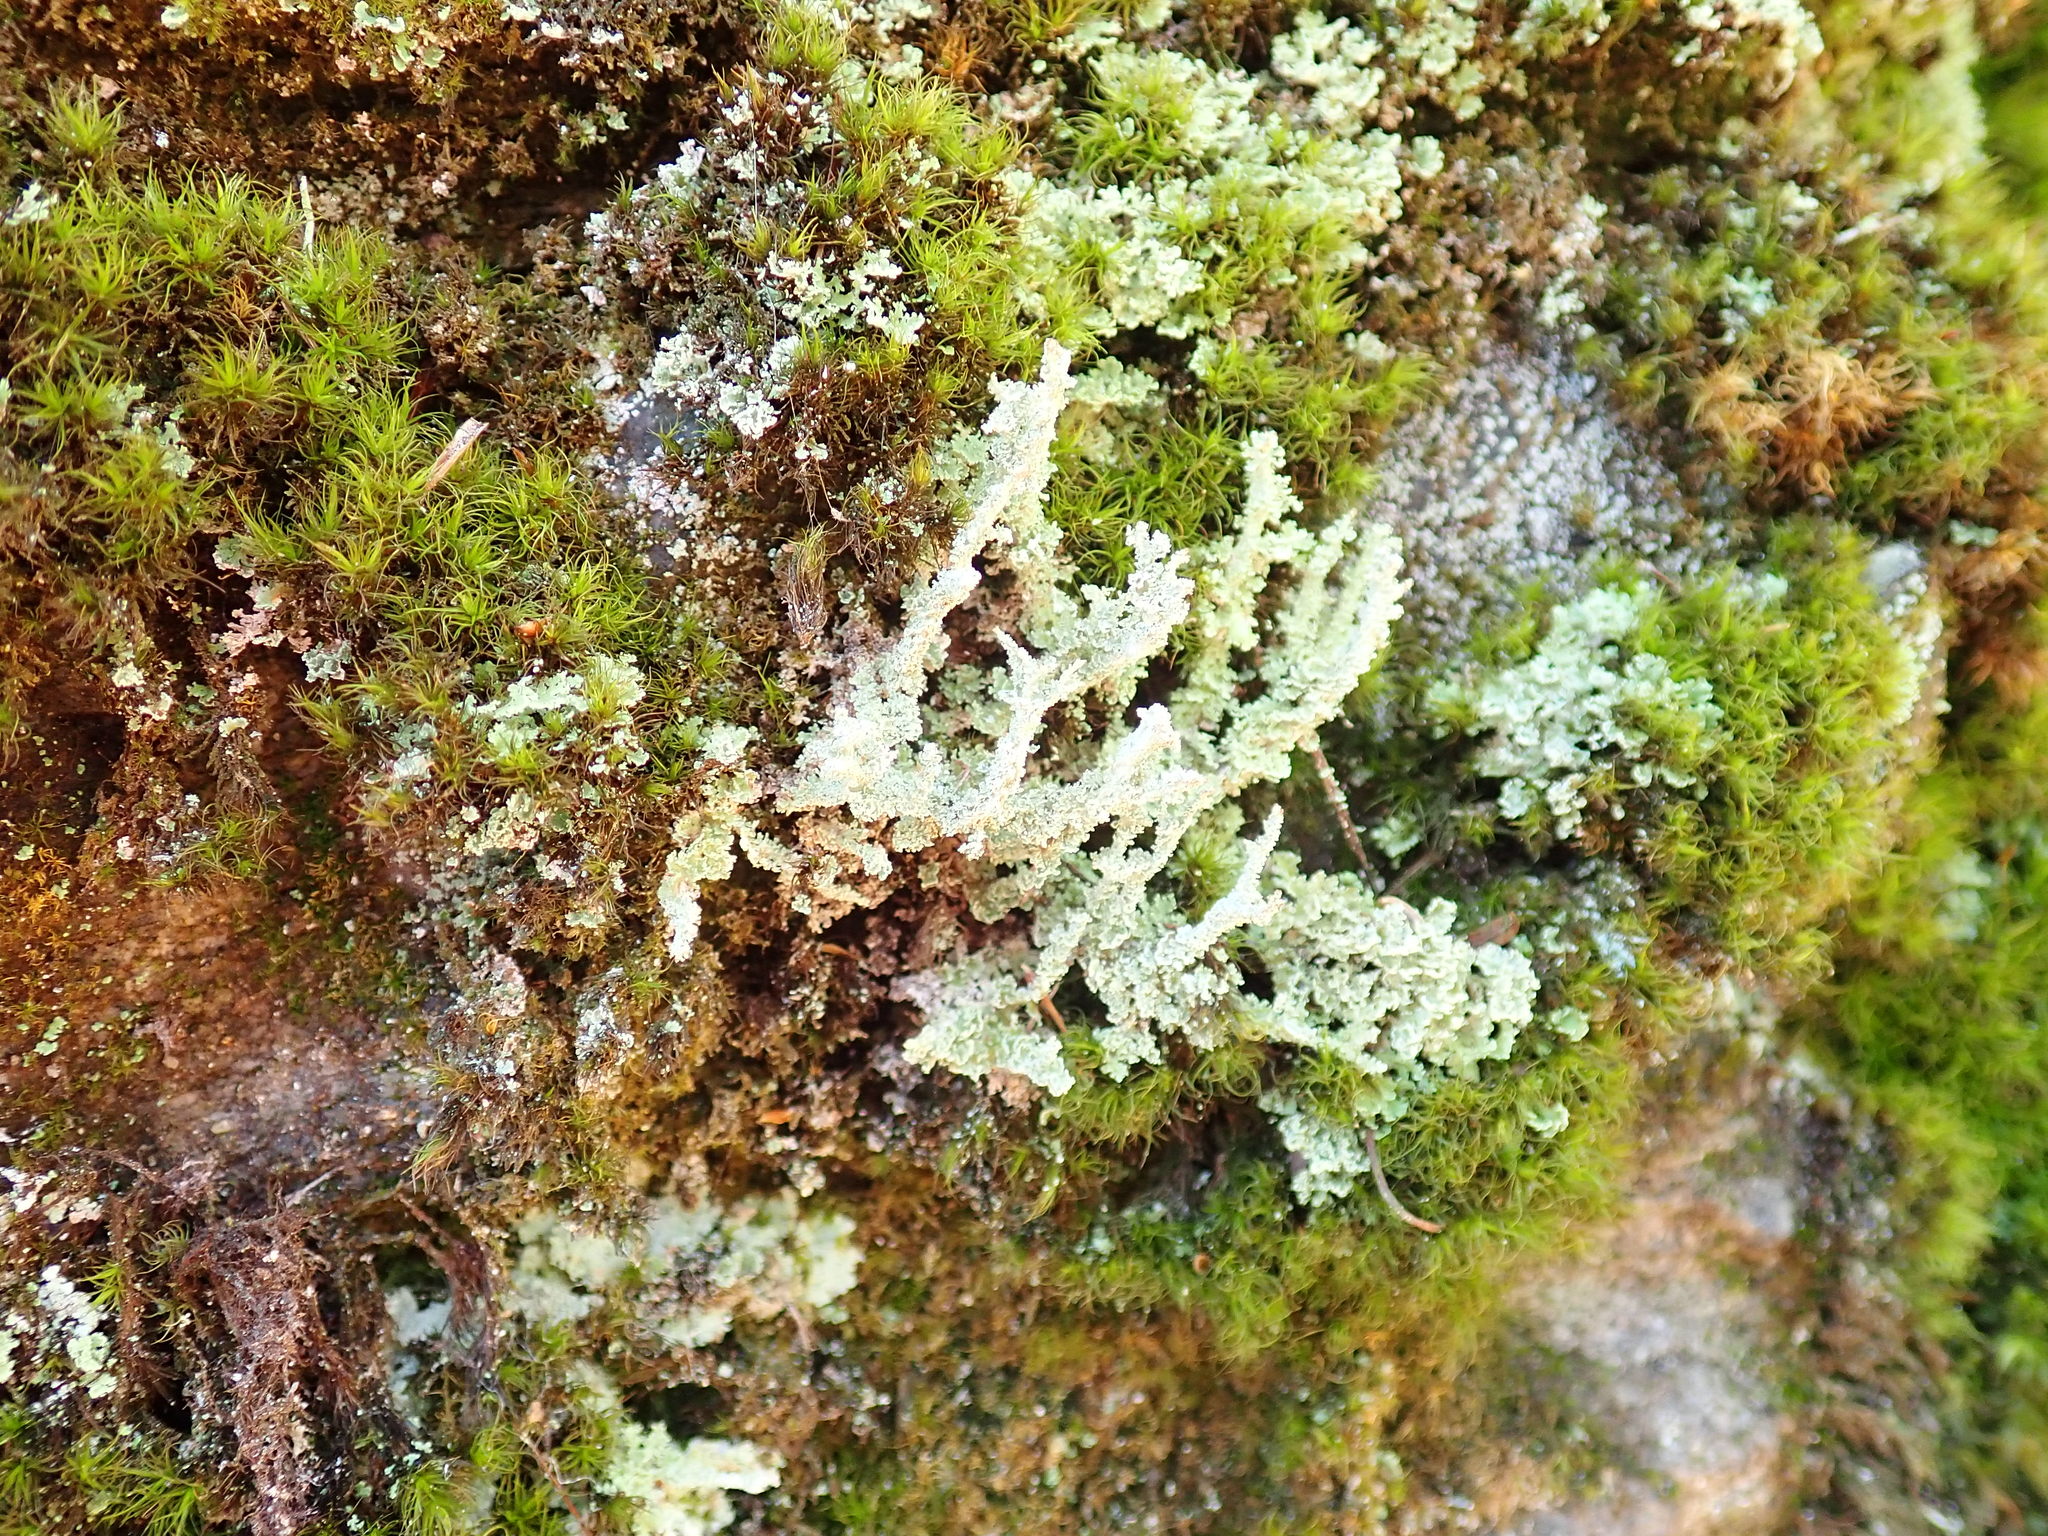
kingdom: Fungi
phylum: Ascomycota
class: Lecanoromycetes
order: Lecanorales
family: Cladoniaceae
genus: Cladonia
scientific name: Cladonia squamosa
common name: Dragon horn
